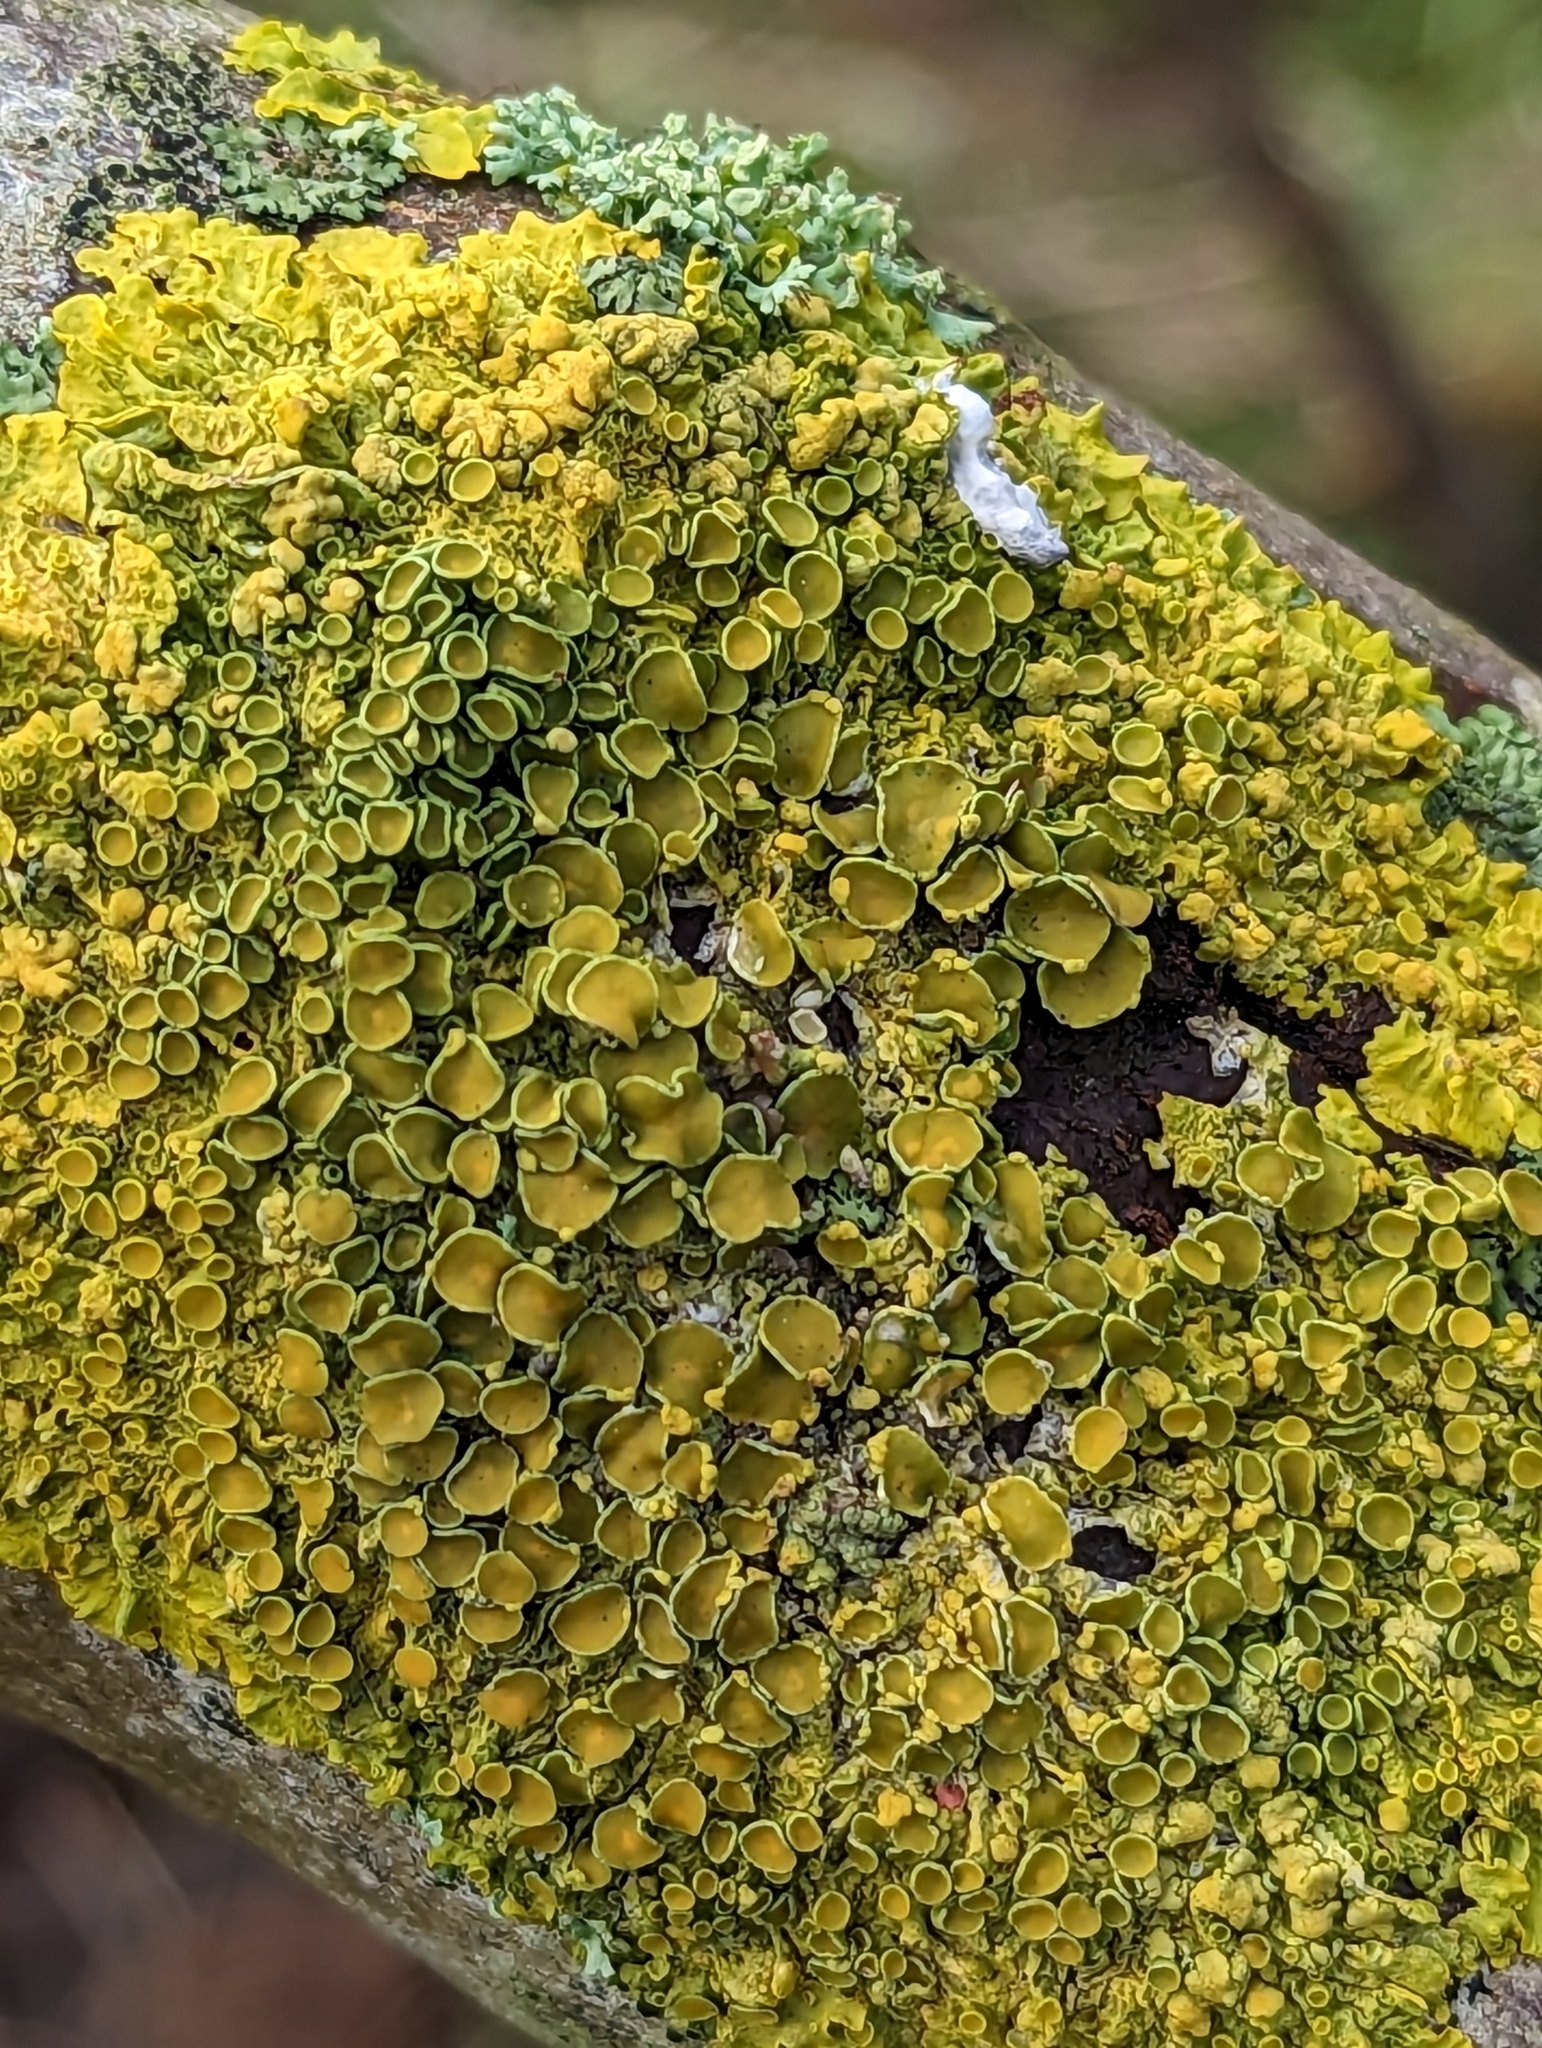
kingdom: Fungi
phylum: Ascomycota
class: Lecanoromycetes
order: Teloschistales
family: Teloschistaceae
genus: Xanthoria
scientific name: Xanthoria parietina
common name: Common orange lichen
